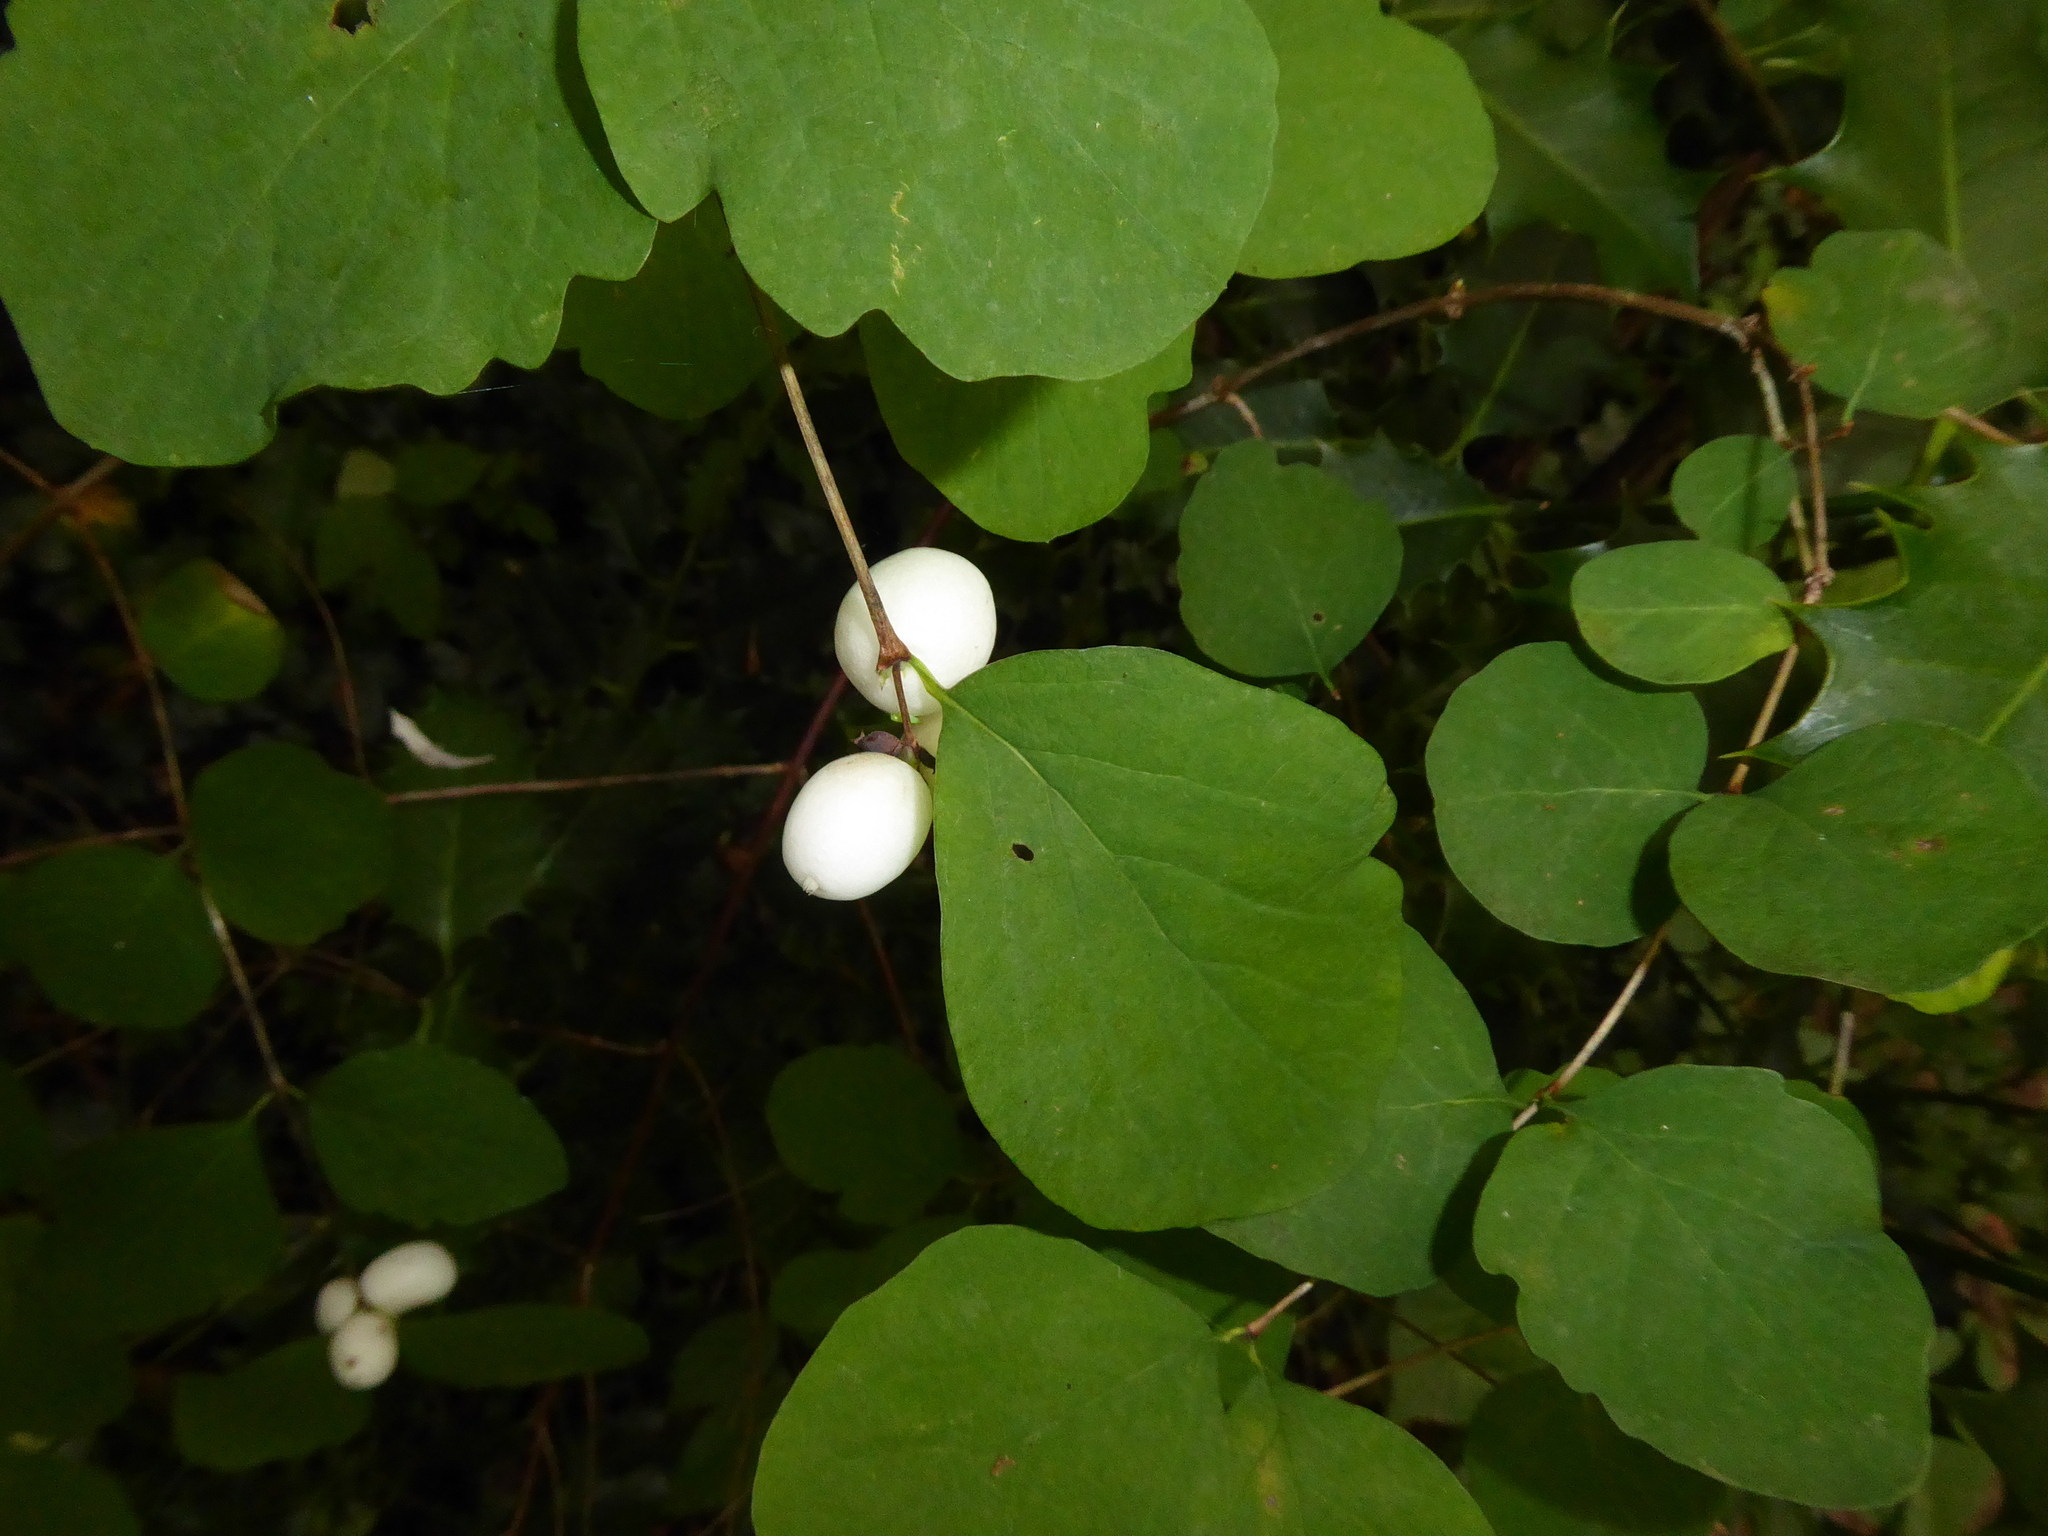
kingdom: Plantae
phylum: Tracheophyta
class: Magnoliopsida
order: Dipsacales
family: Caprifoliaceae
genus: Symphoricarpos
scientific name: Symphoricarpos albus
